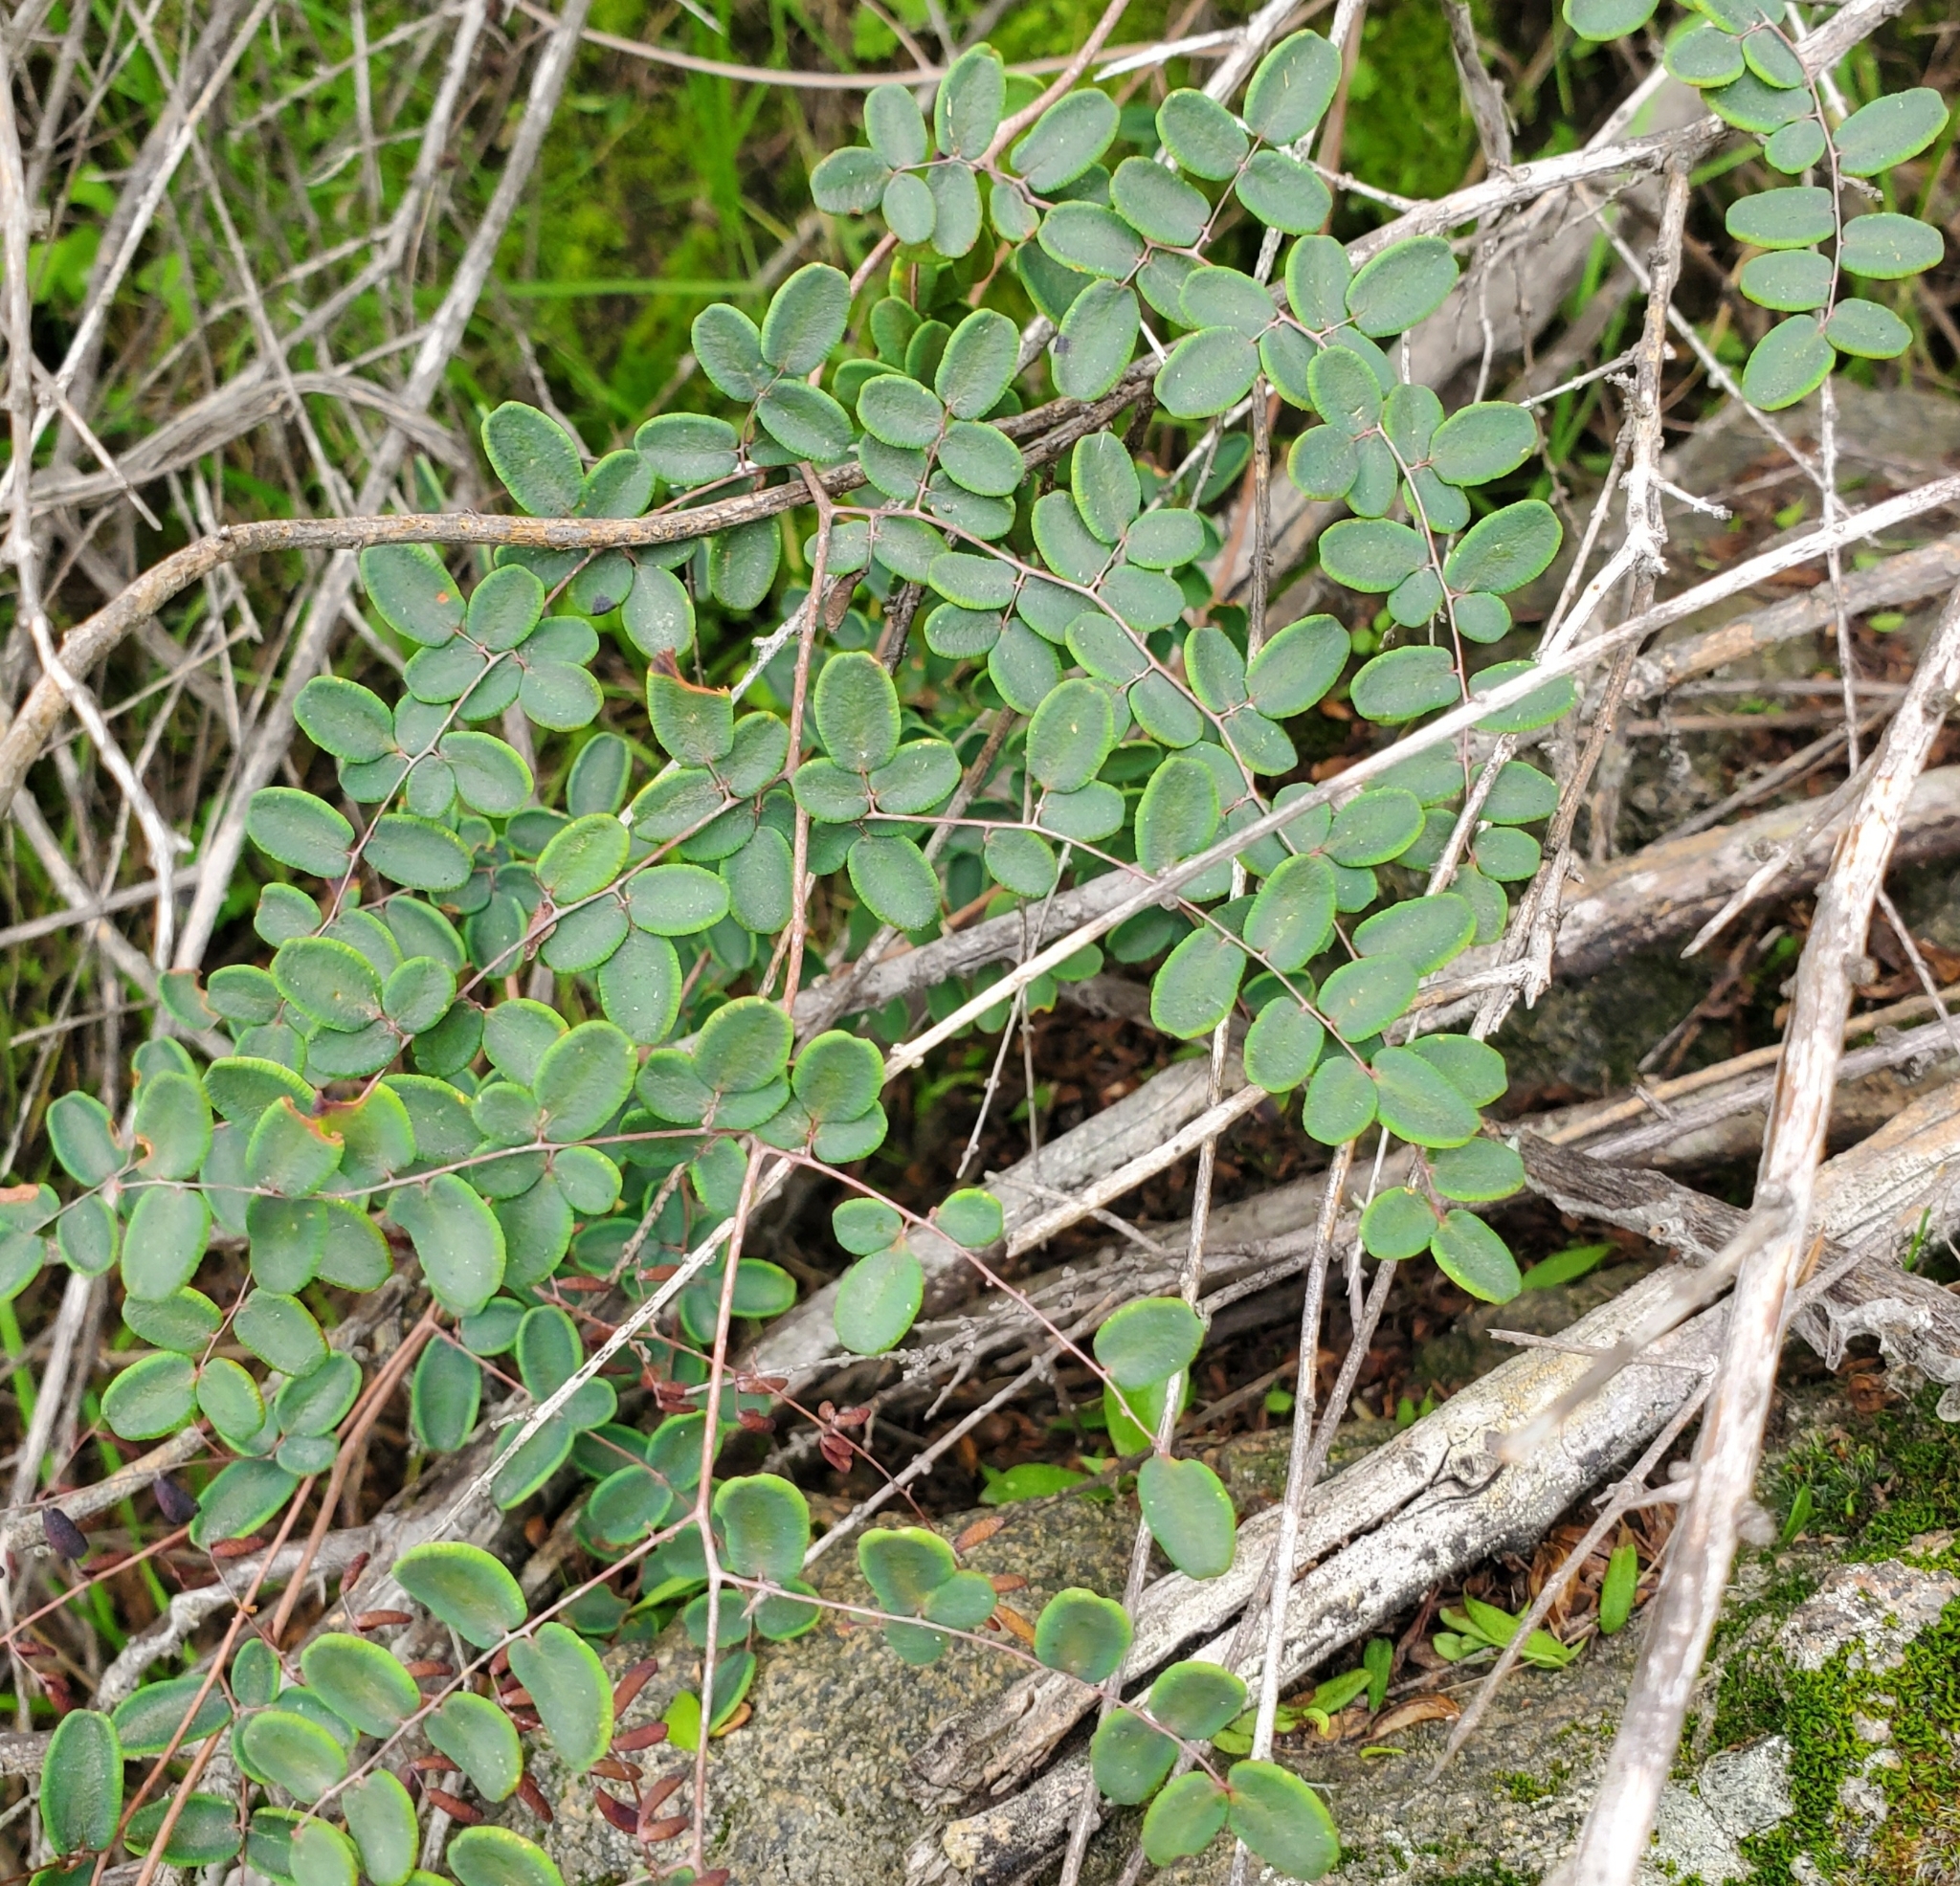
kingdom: Plantae
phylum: Tracheophyta
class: Polypodiopsida
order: Polypodiales
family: Pteridaceae
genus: Pellaea
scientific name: Pellaea andromedifolia
